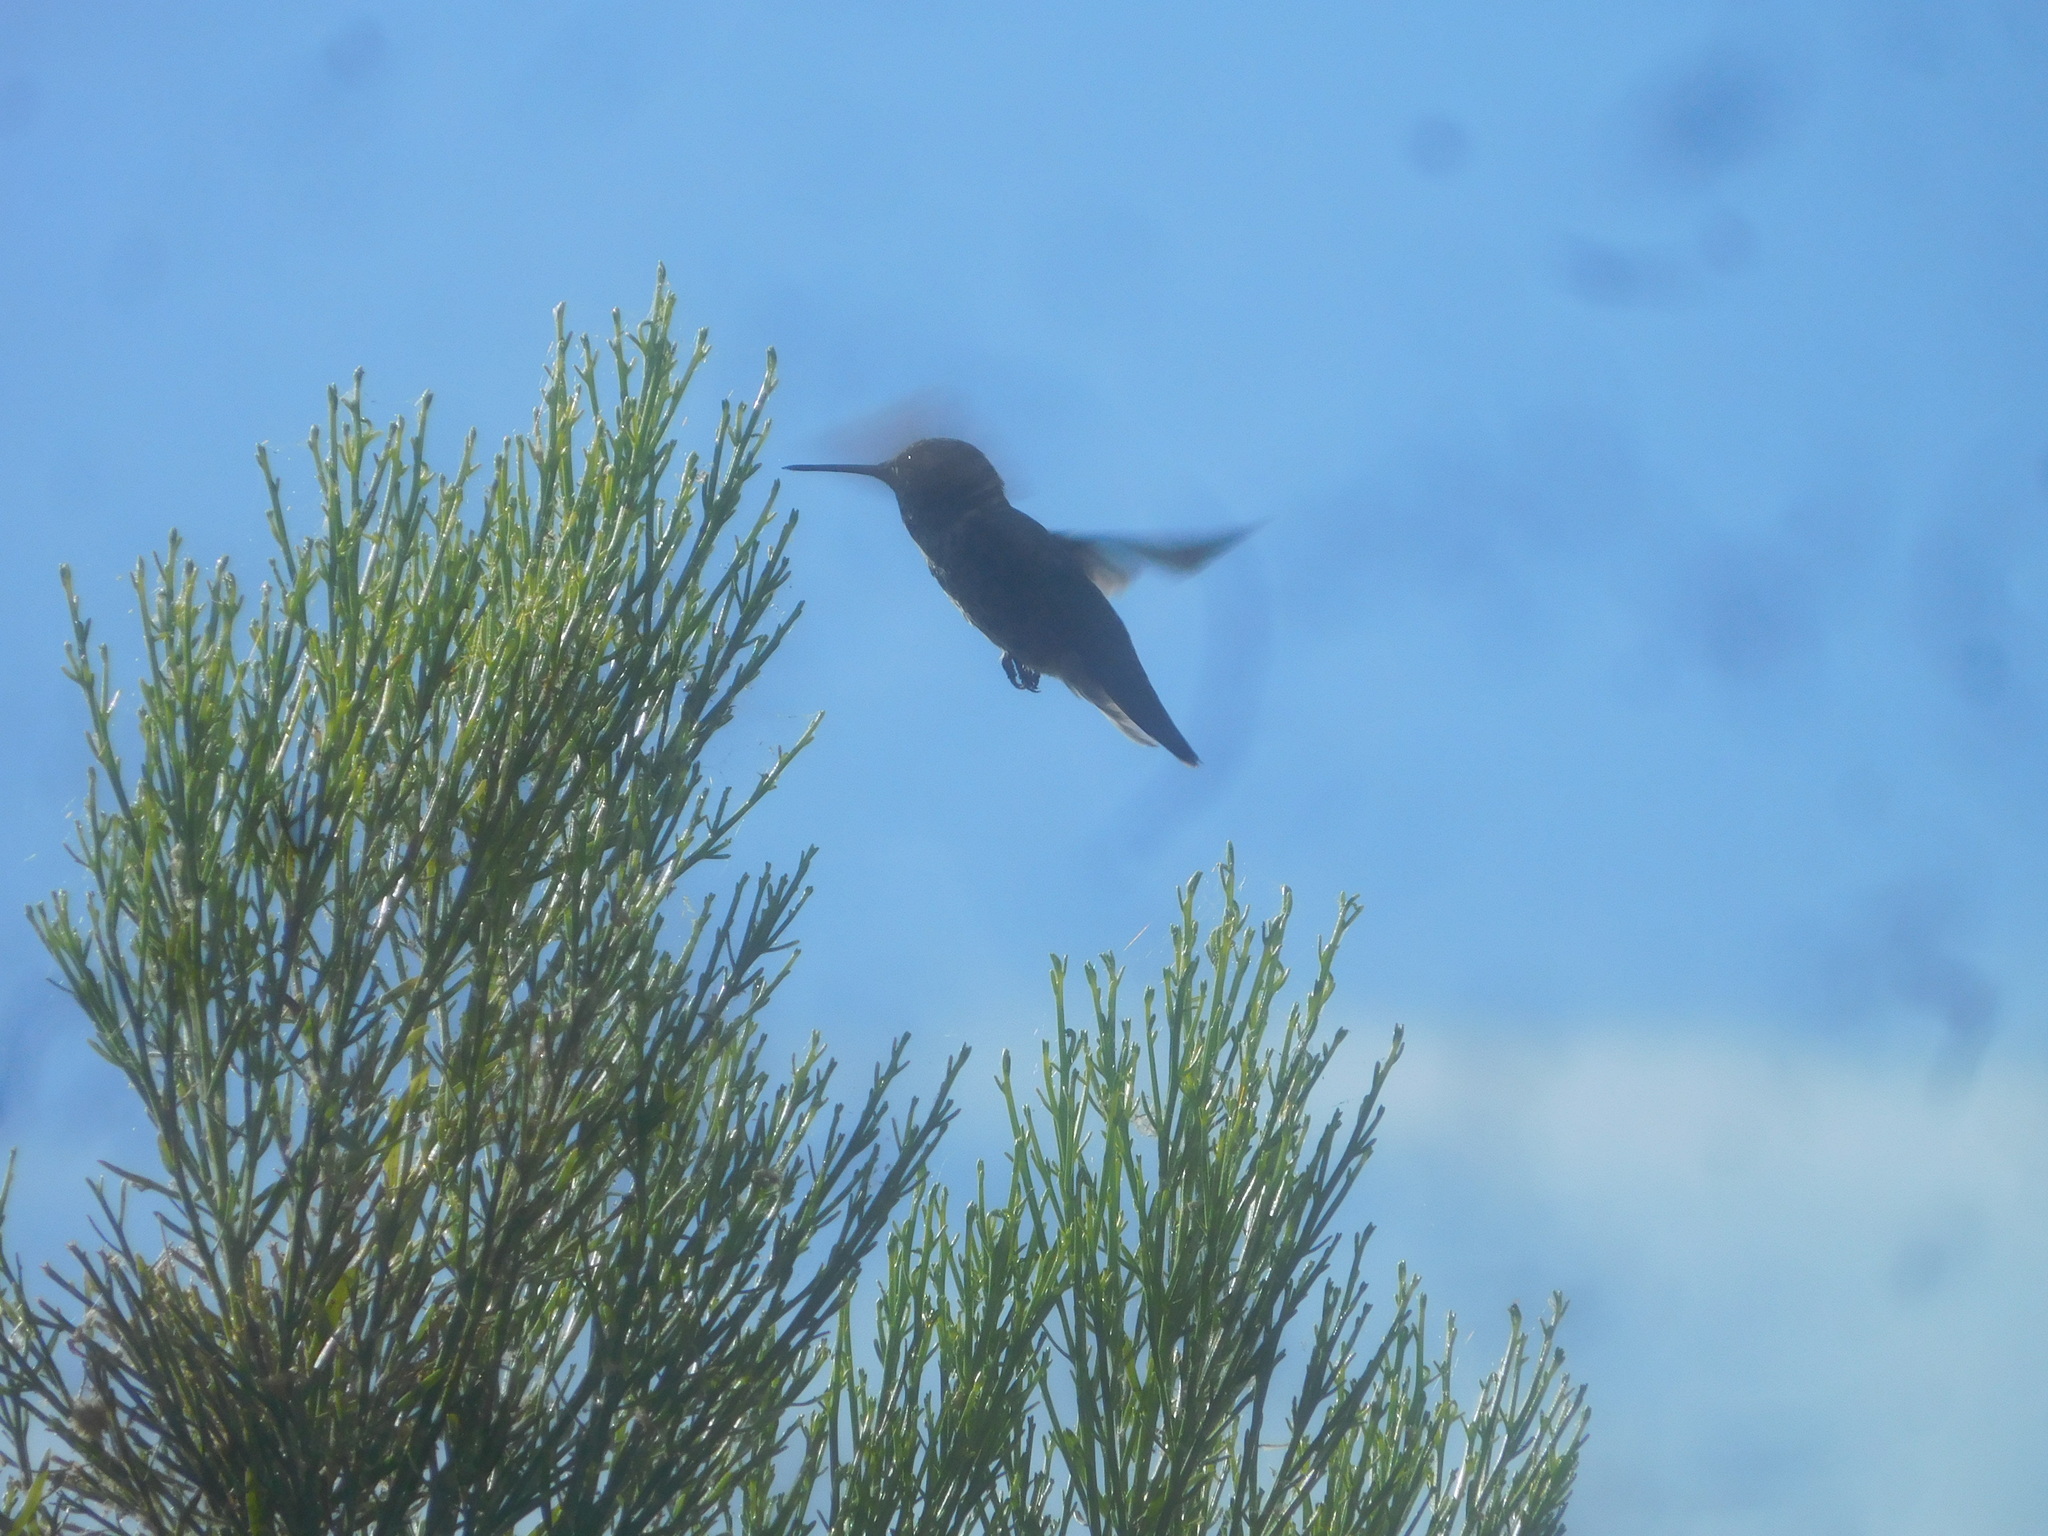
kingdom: Animalia
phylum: Chordata
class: Aves
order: Apodiformes
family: Trochilidae
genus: Calypte
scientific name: Calypte anna
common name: Anna's hummingbird
